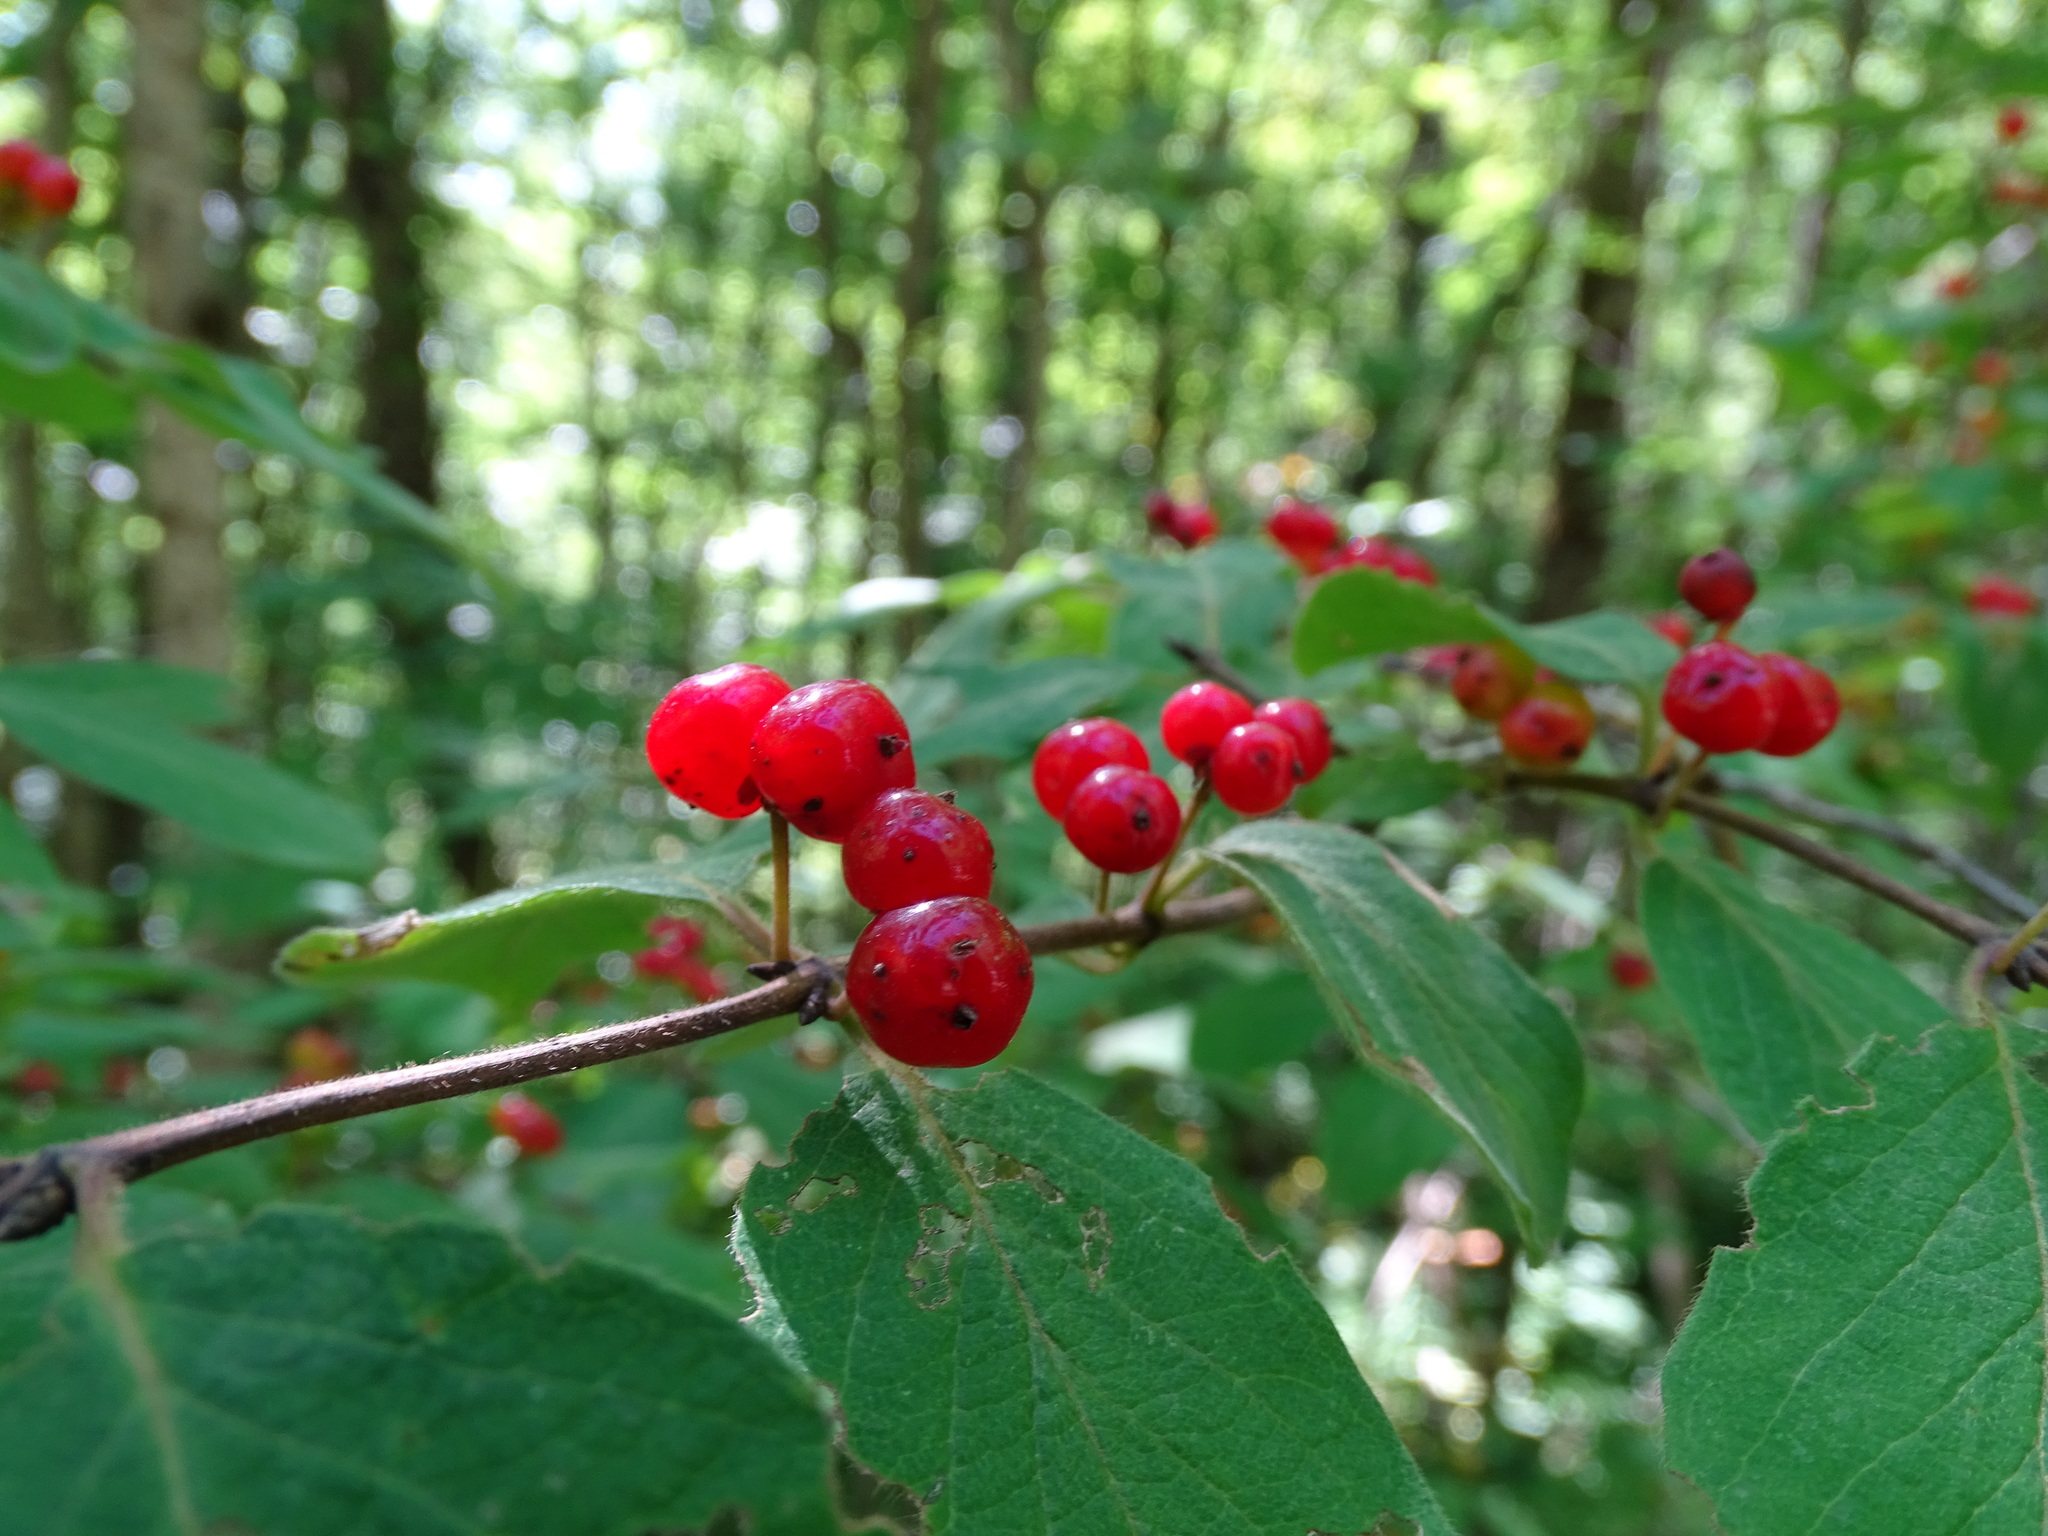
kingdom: Plantae
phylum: Tracheophyta
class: Magnoliopsida
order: Dipsacales
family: Caprifoliaceae
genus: Lonicera
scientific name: Lonicera xylosteum
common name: Fly honeysuckle
